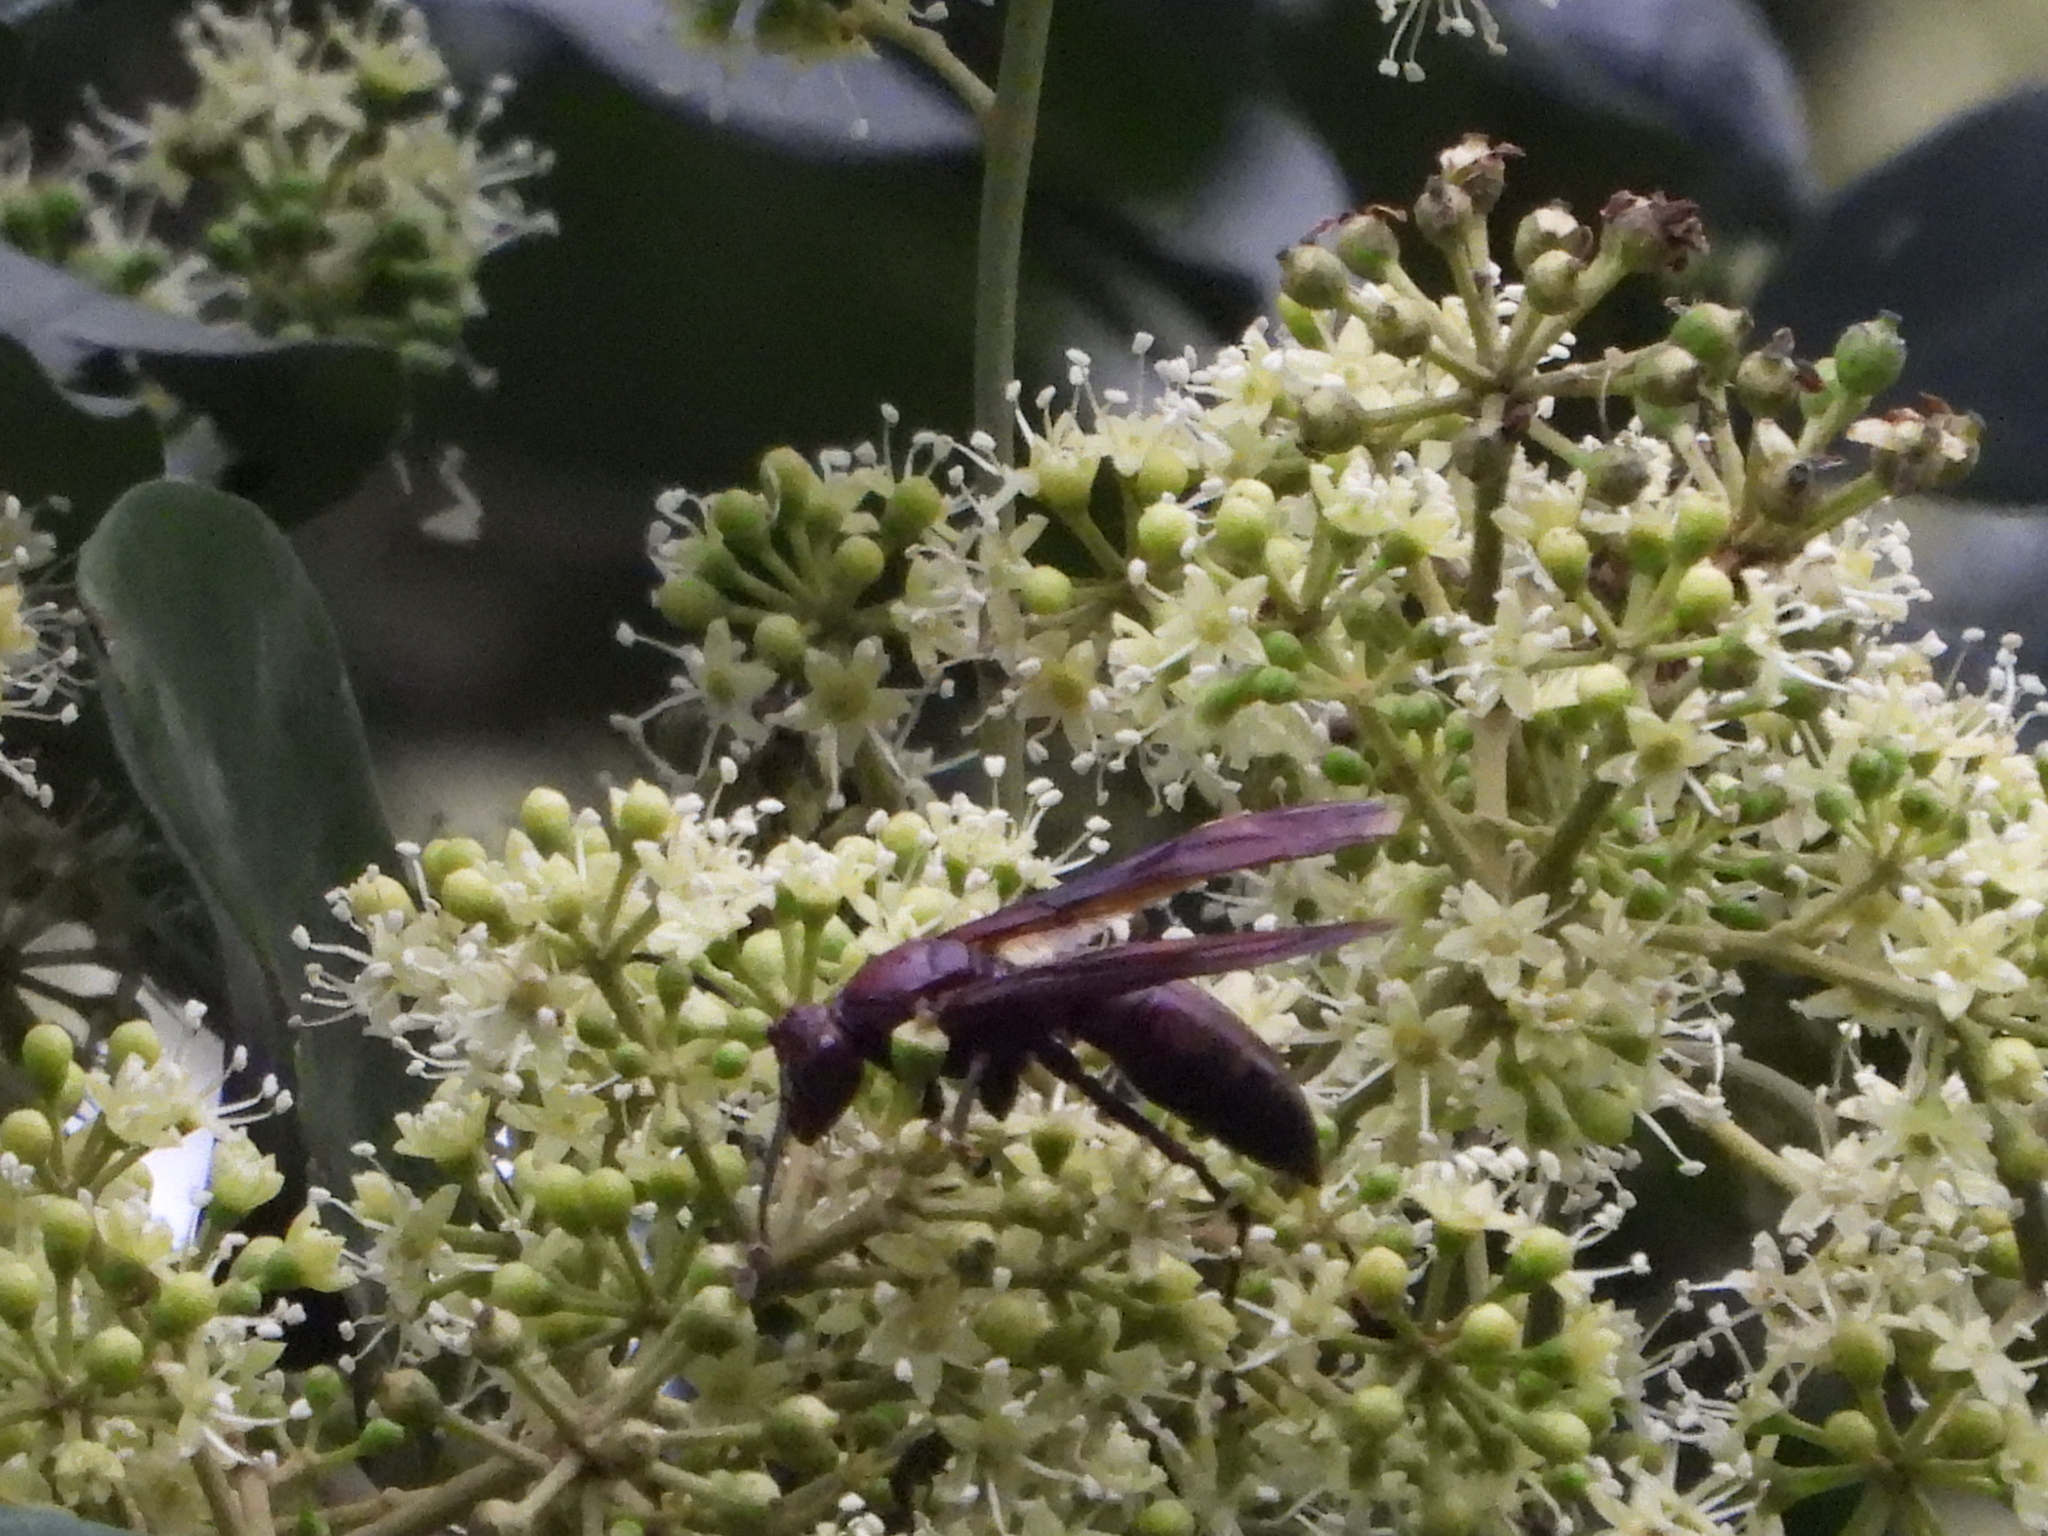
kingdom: Animalia
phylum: Arthropoda
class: Insecta
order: Hymenoptera
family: Eumenidae
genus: Polistes
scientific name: Polistes gigas
